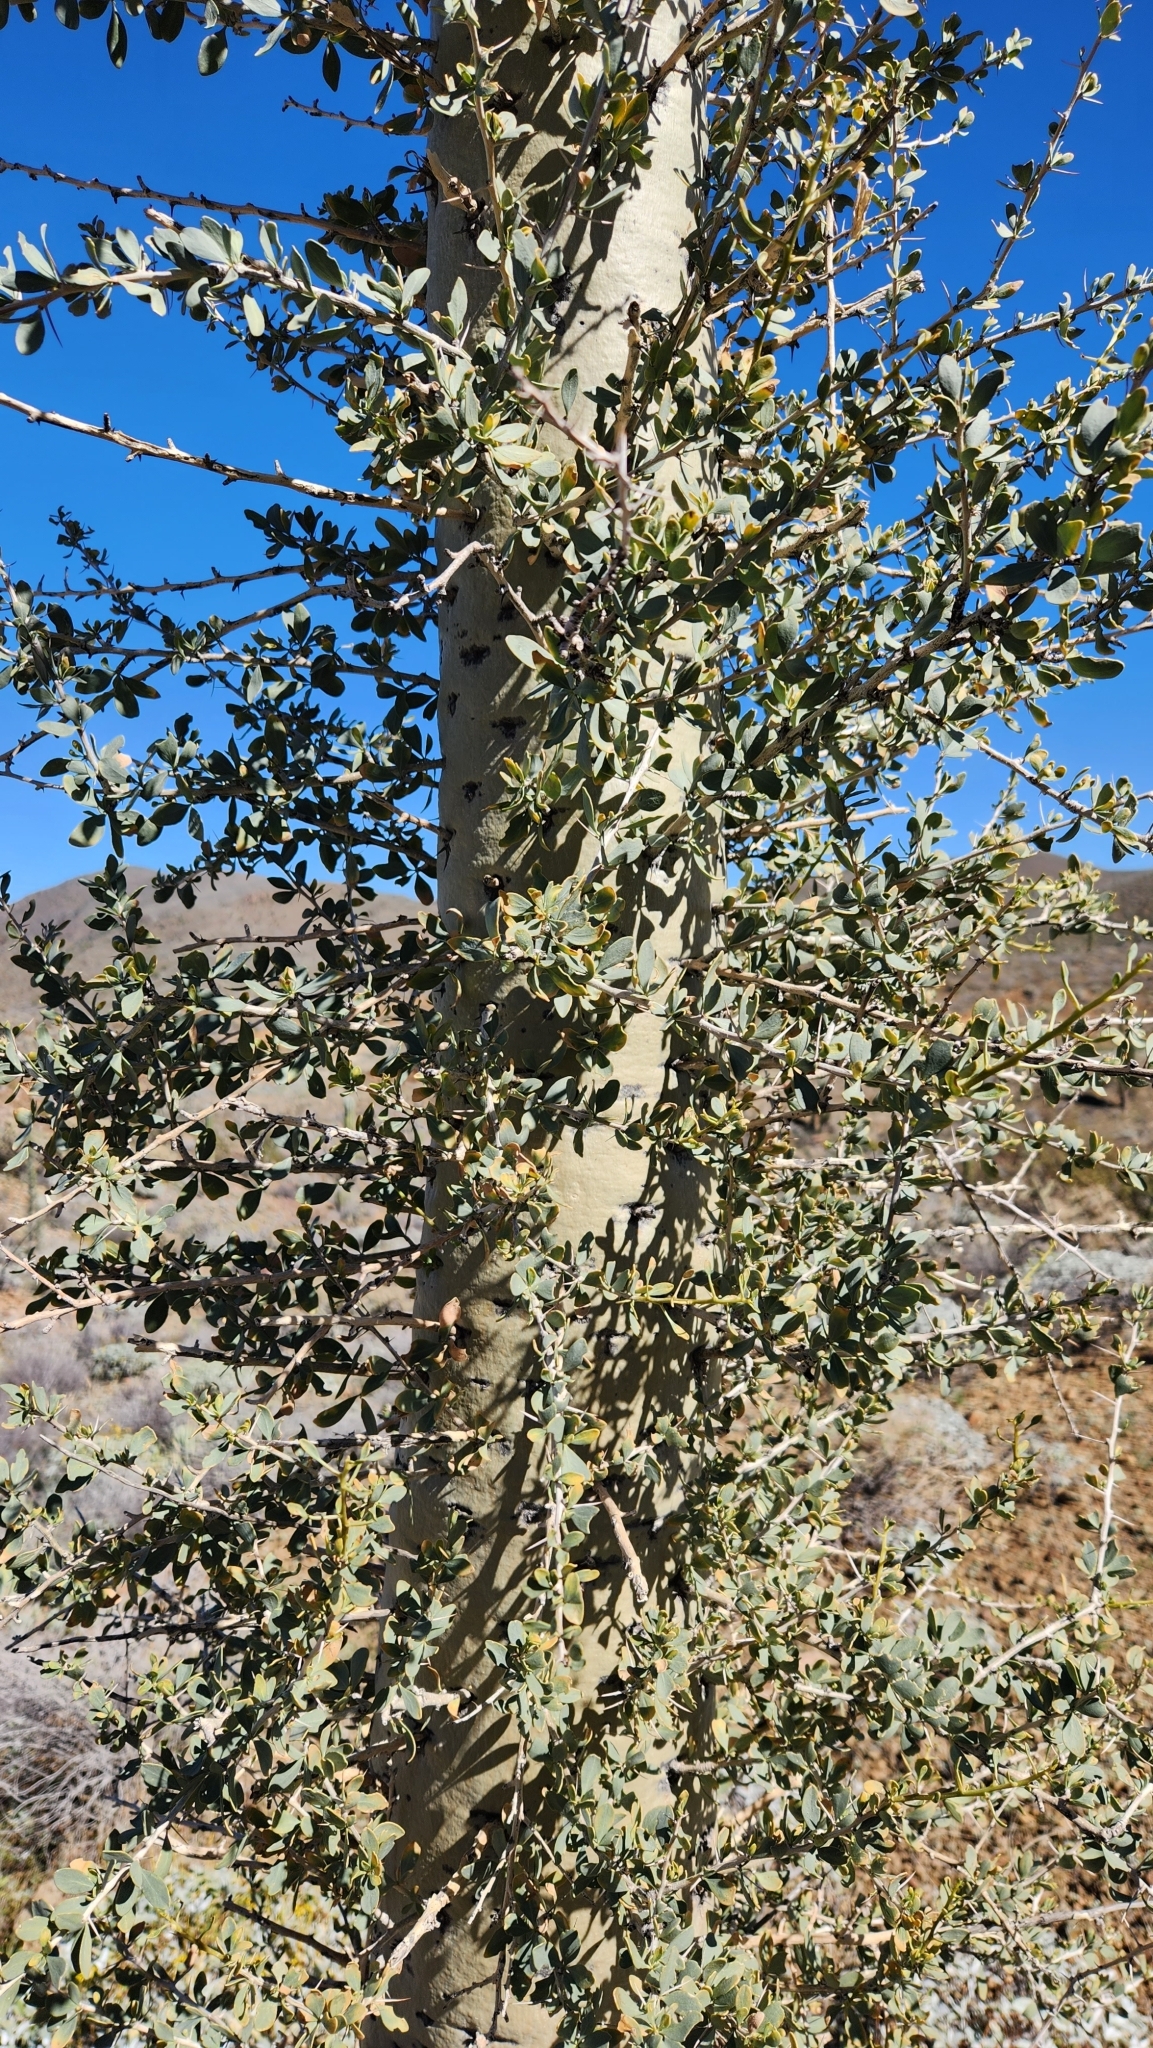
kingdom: Plantae
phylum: Tracheophyta
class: Magnoliopsida
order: Ericales
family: Fouquieriaceae
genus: Fouquieria
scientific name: Fouquieria columnaris
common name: Boojumtree
